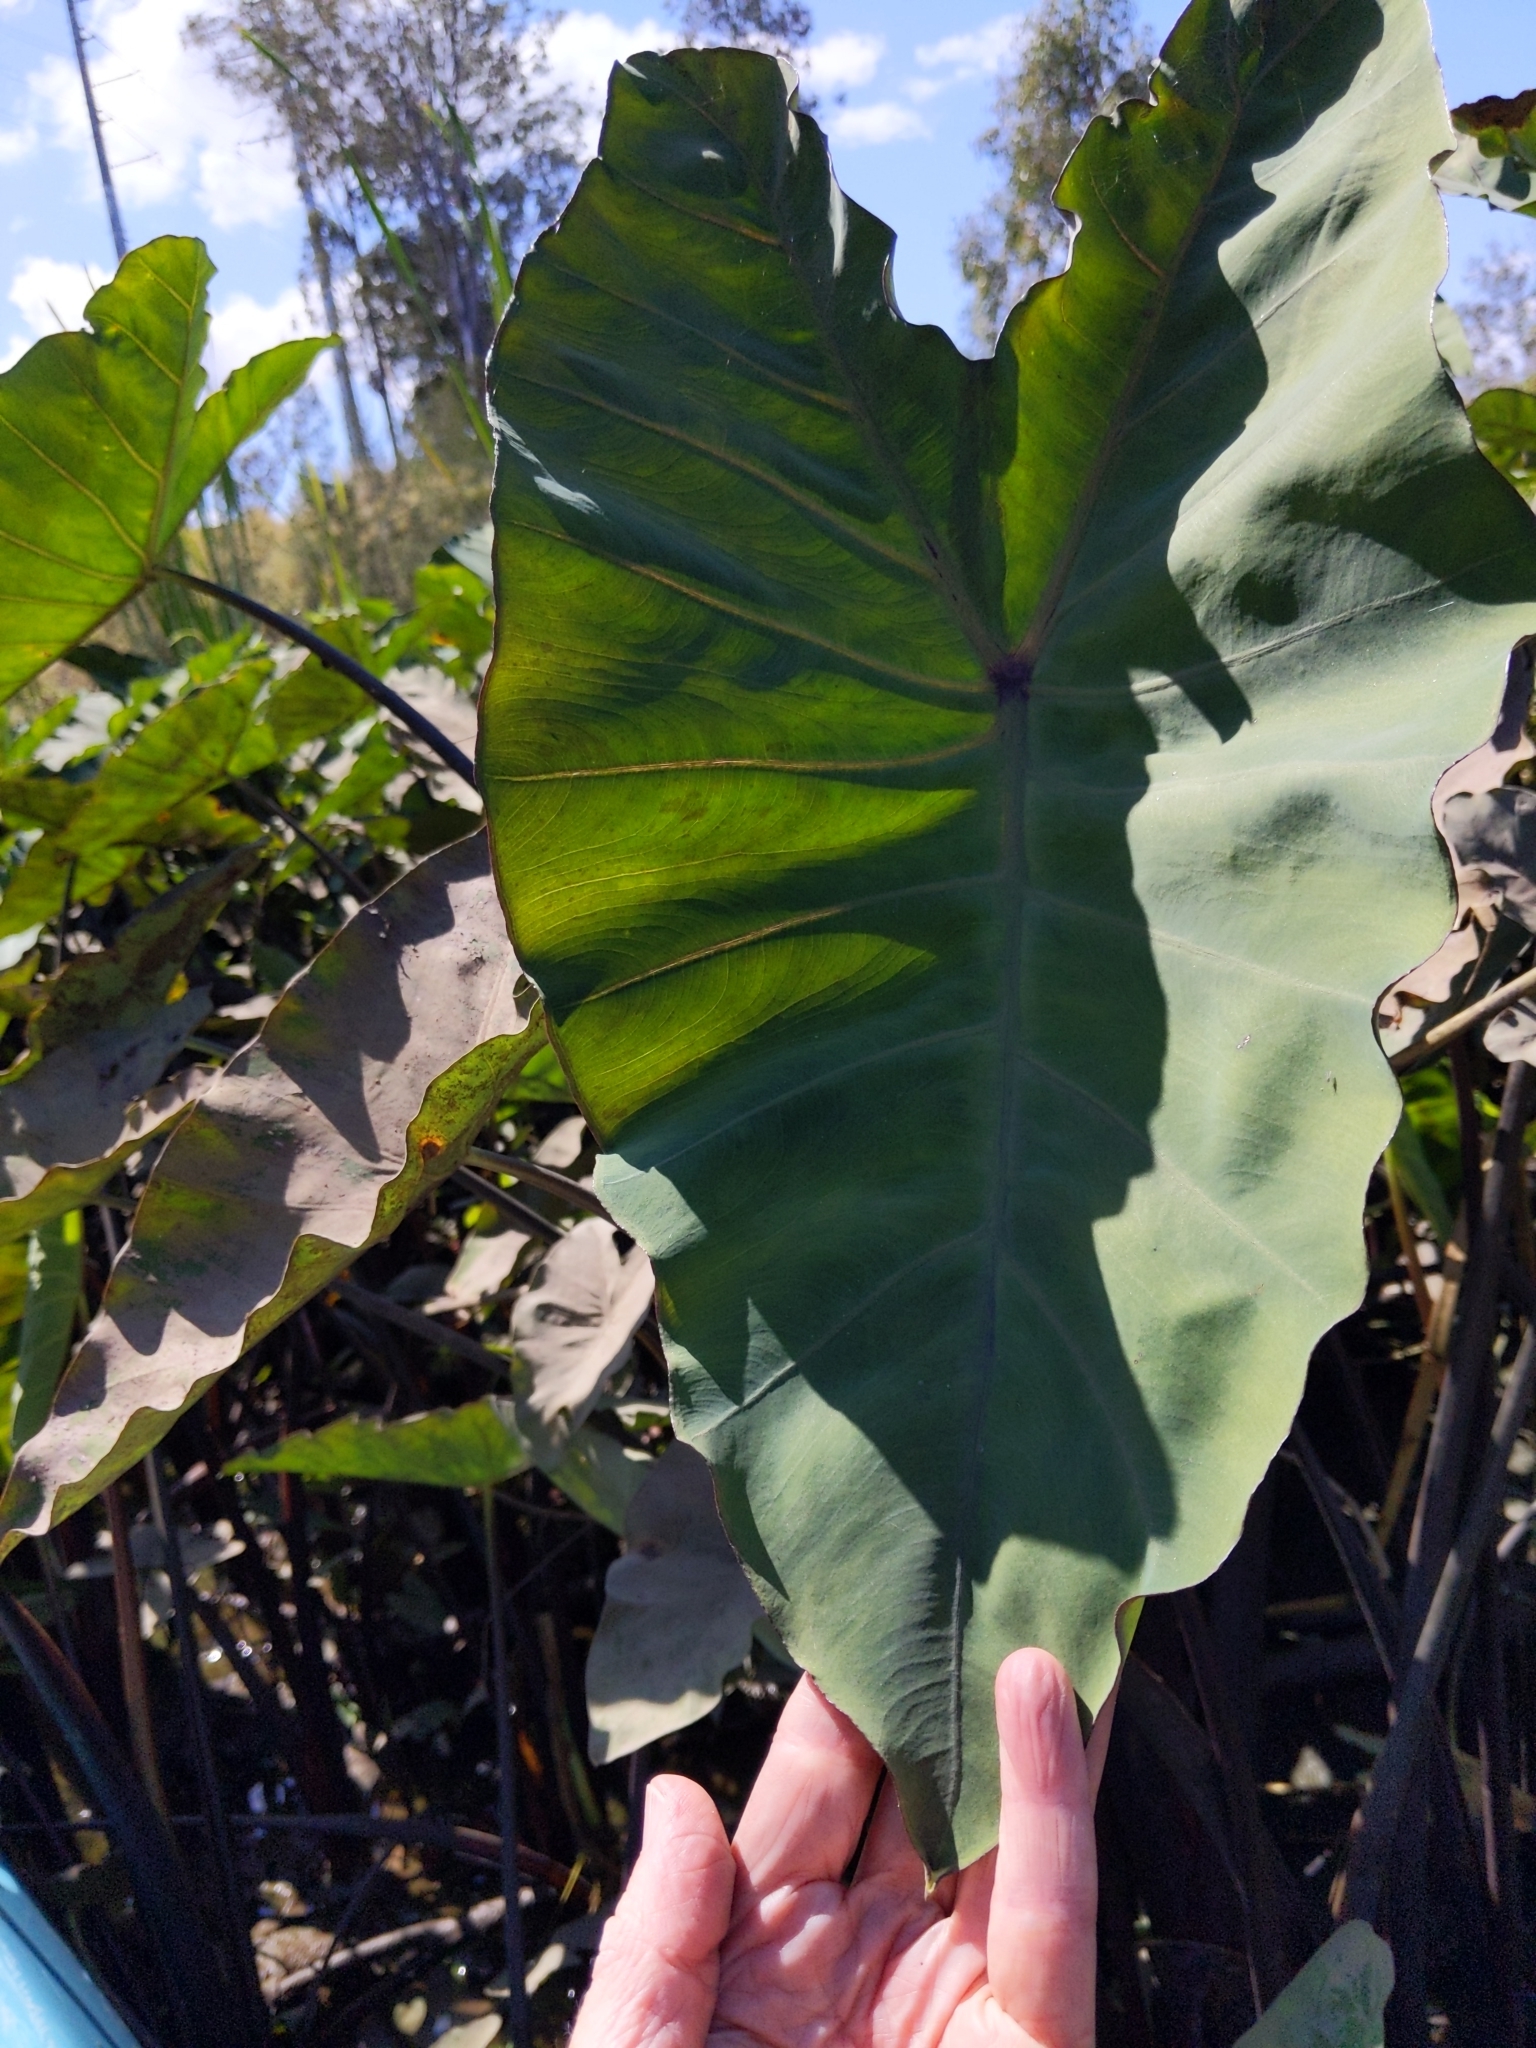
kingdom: Plantae
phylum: Tracheophyta
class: Liliopsida
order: Alismatales
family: Araceae
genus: Colocasia
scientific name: Colocasia esculenta
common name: Taro
